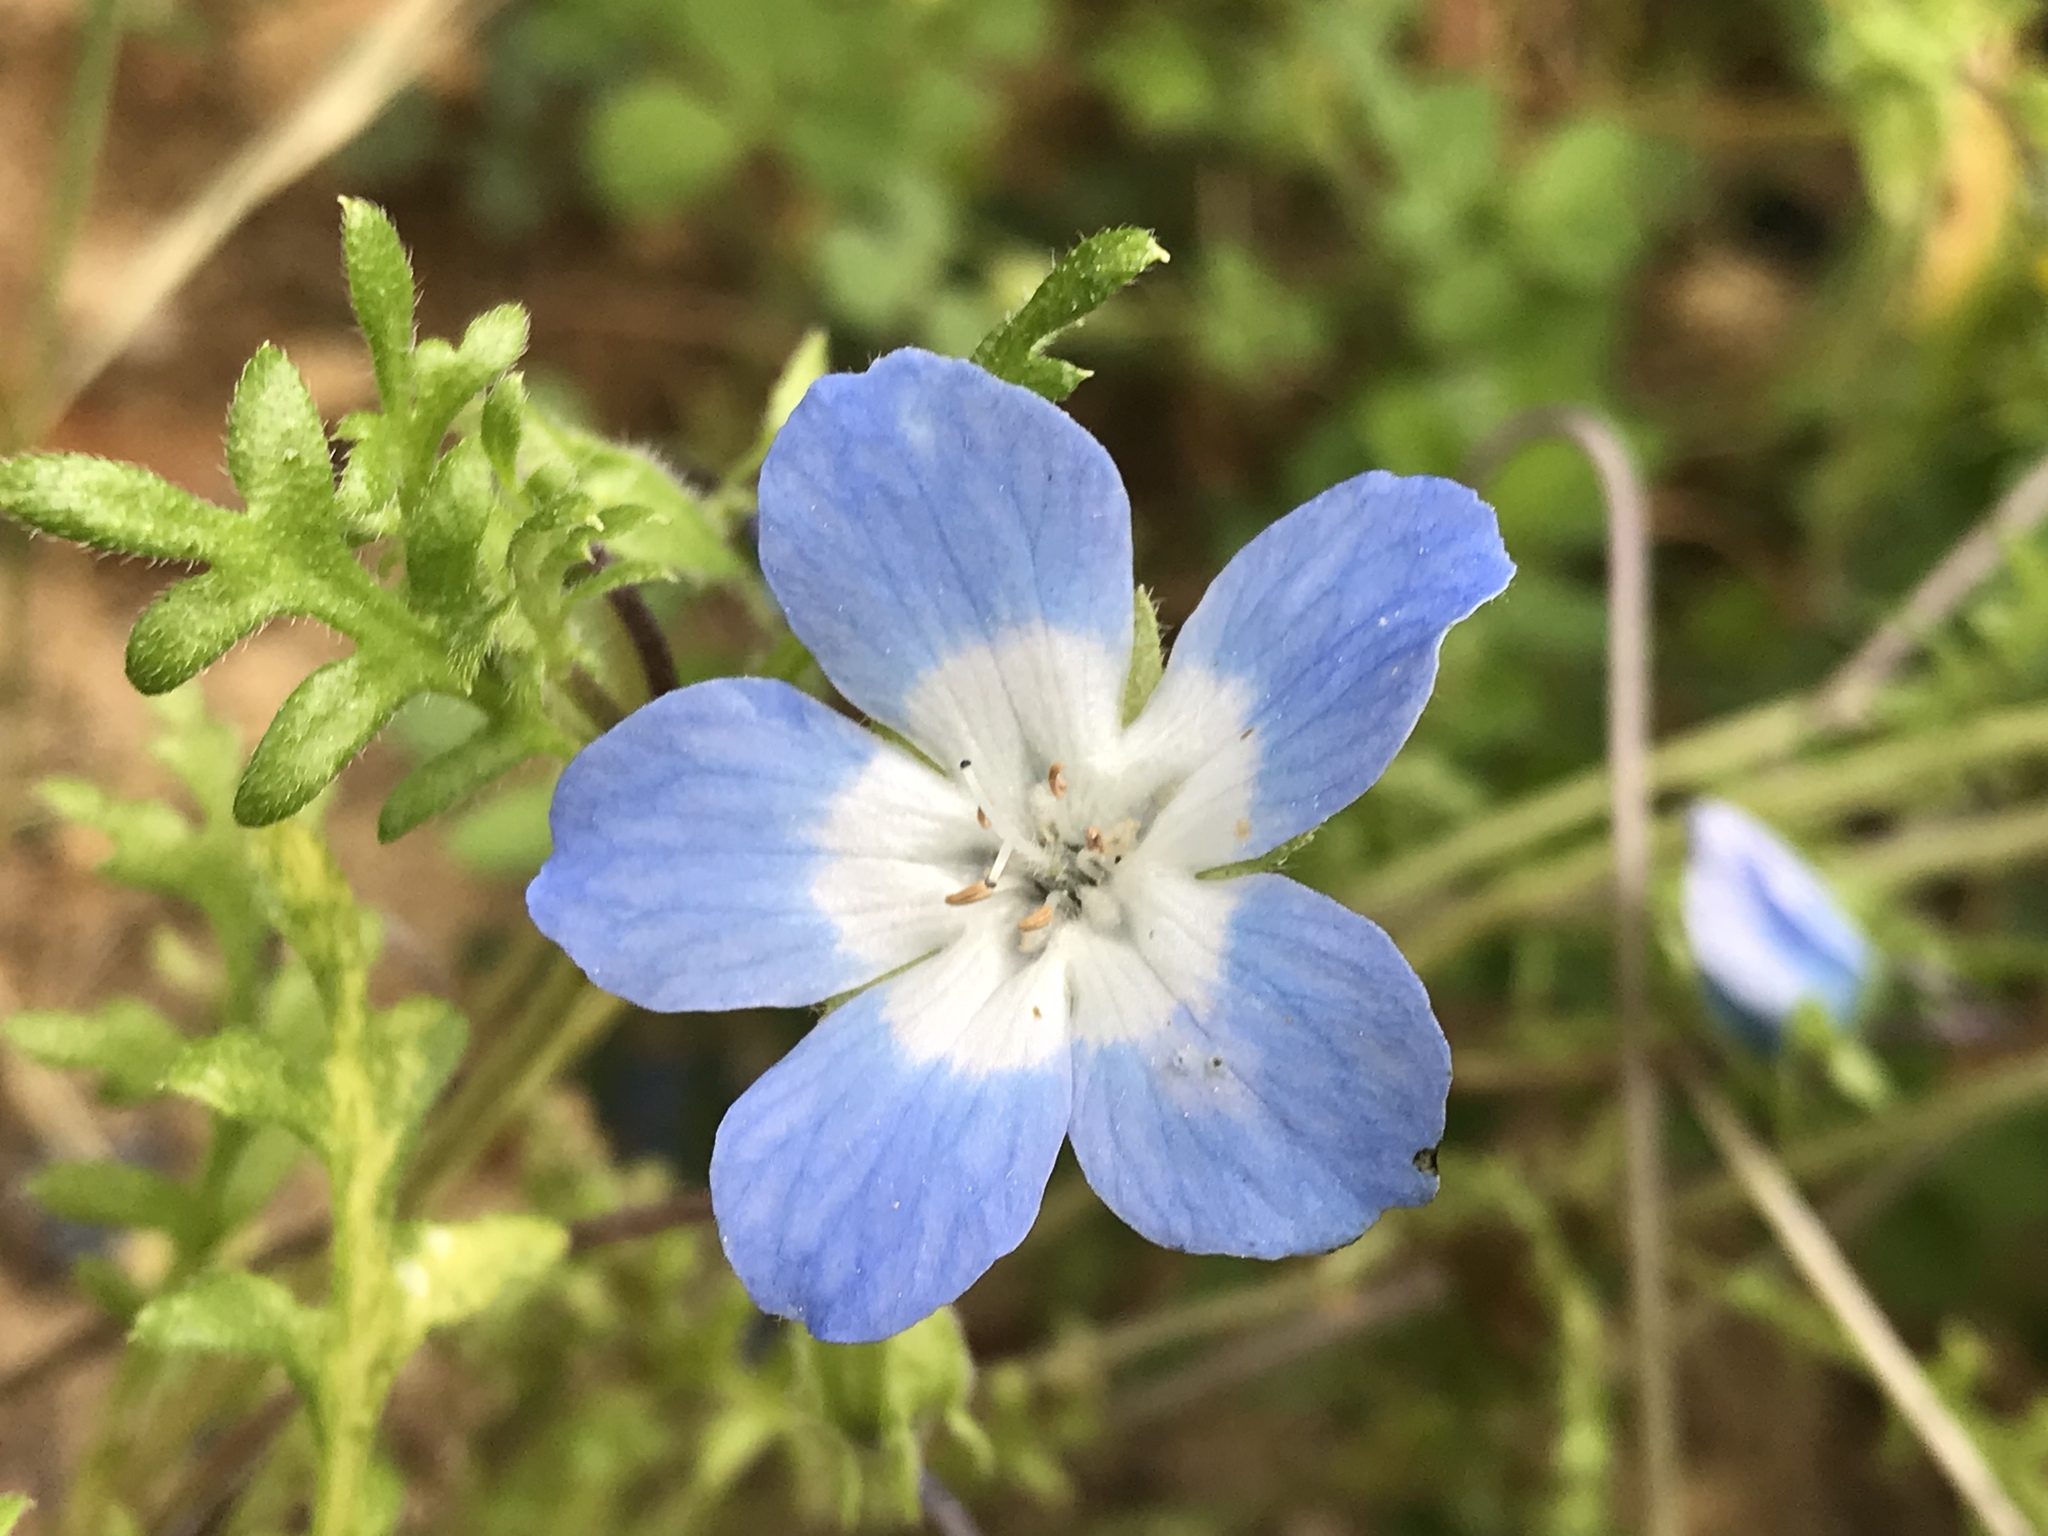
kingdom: Plantae
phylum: Tracheophyta
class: Magnoliopsida
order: Boraginales
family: Hydrophyllaceae
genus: Nemophila
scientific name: Nemophila menziesii
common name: Baby's-blue-eyes
